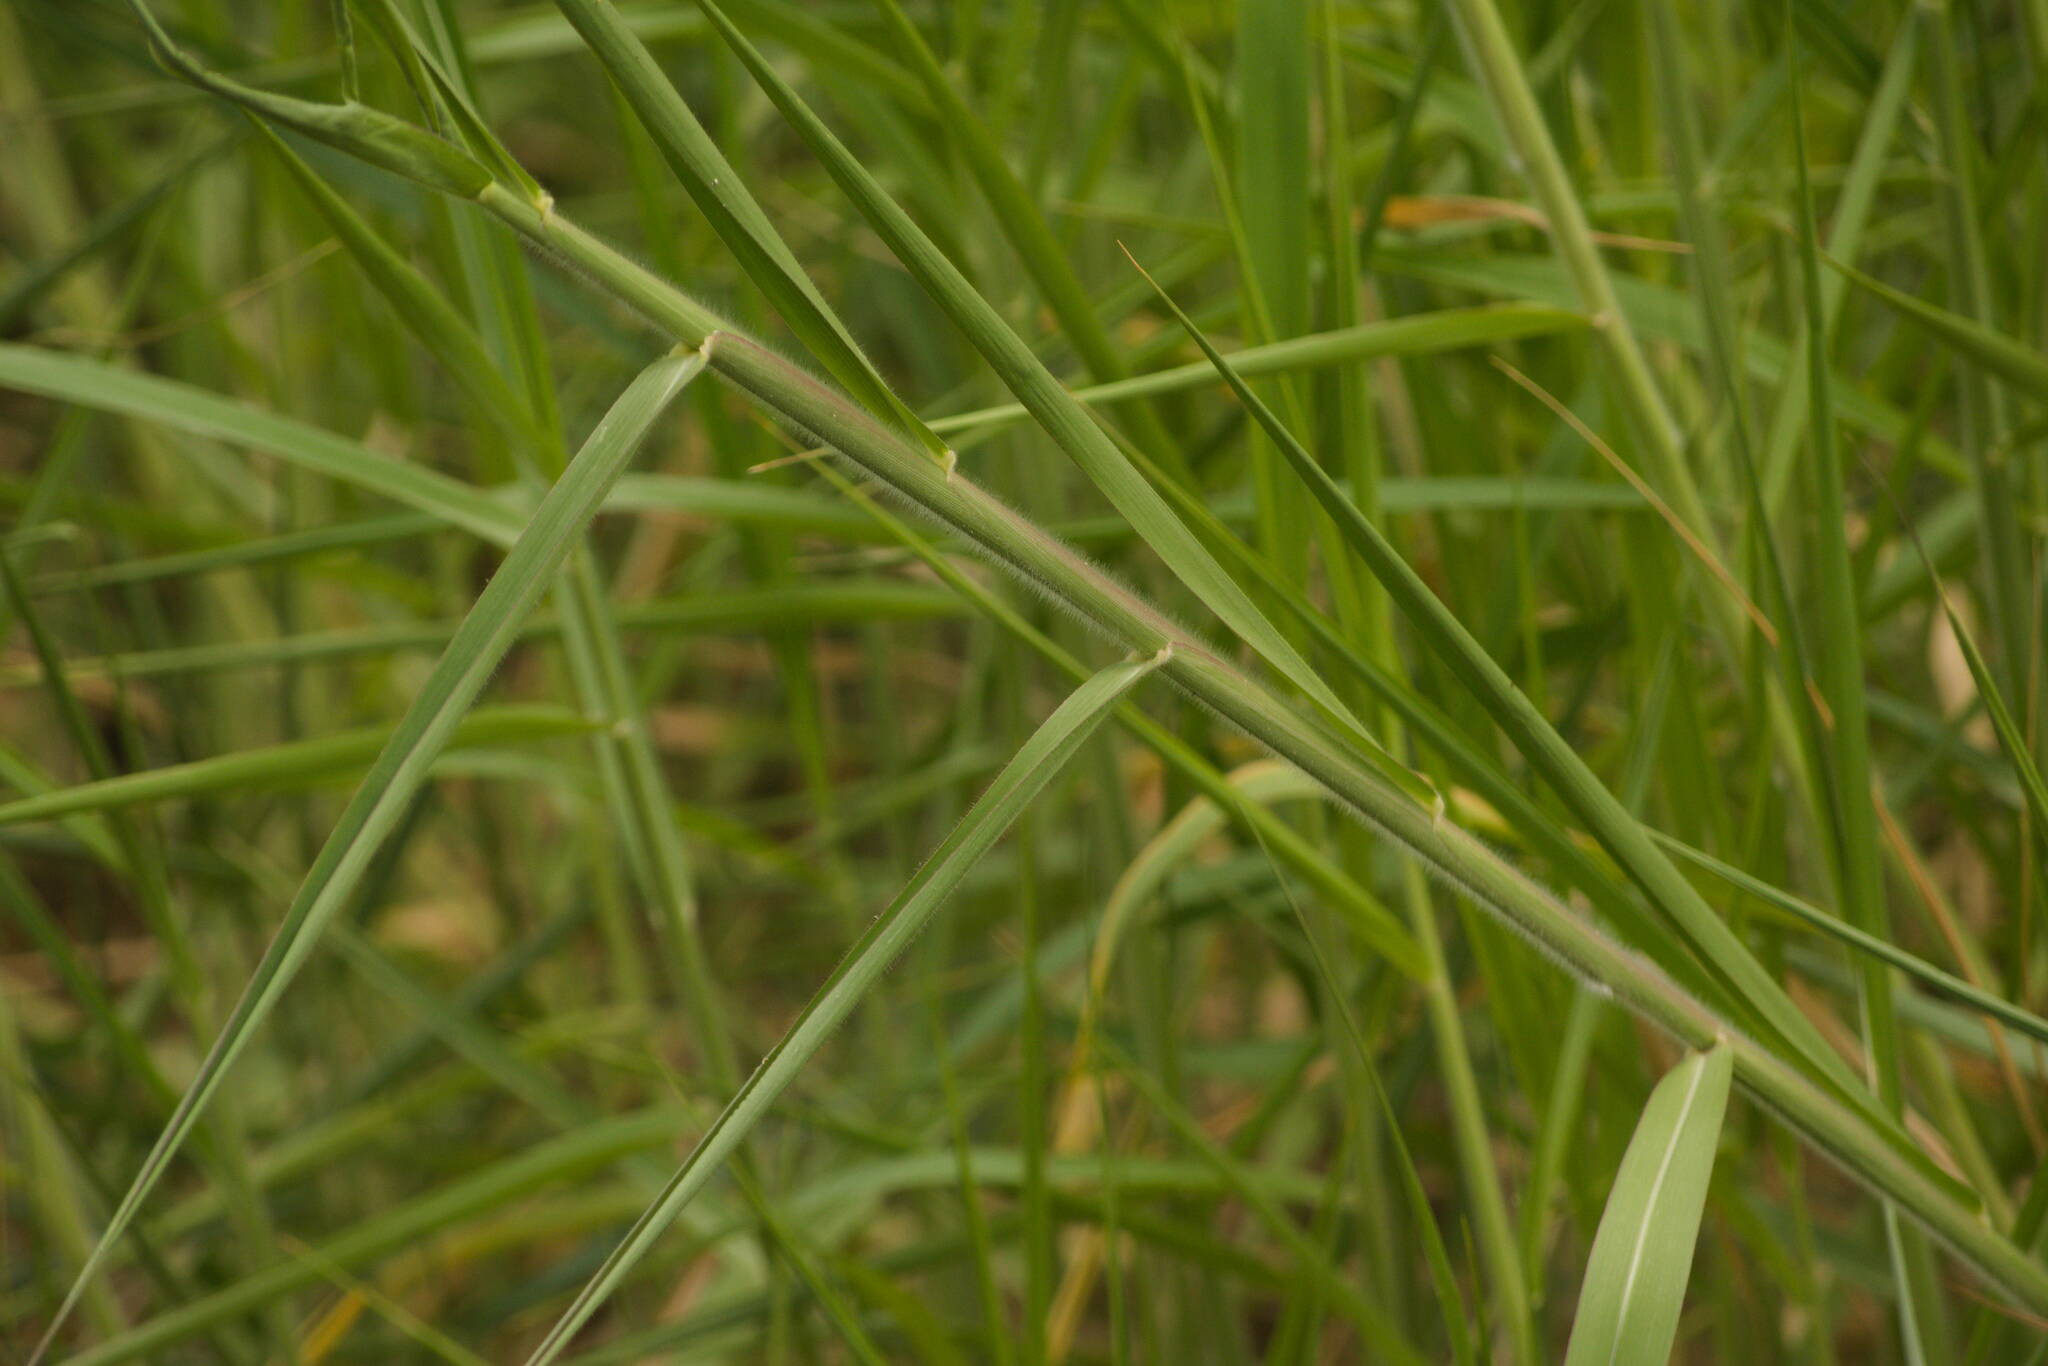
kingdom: Plantae
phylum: Tracheophyta
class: Liliopsida
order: Poales
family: Poaceae
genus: Urochloa
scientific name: Urochloa mutica
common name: Para grass
